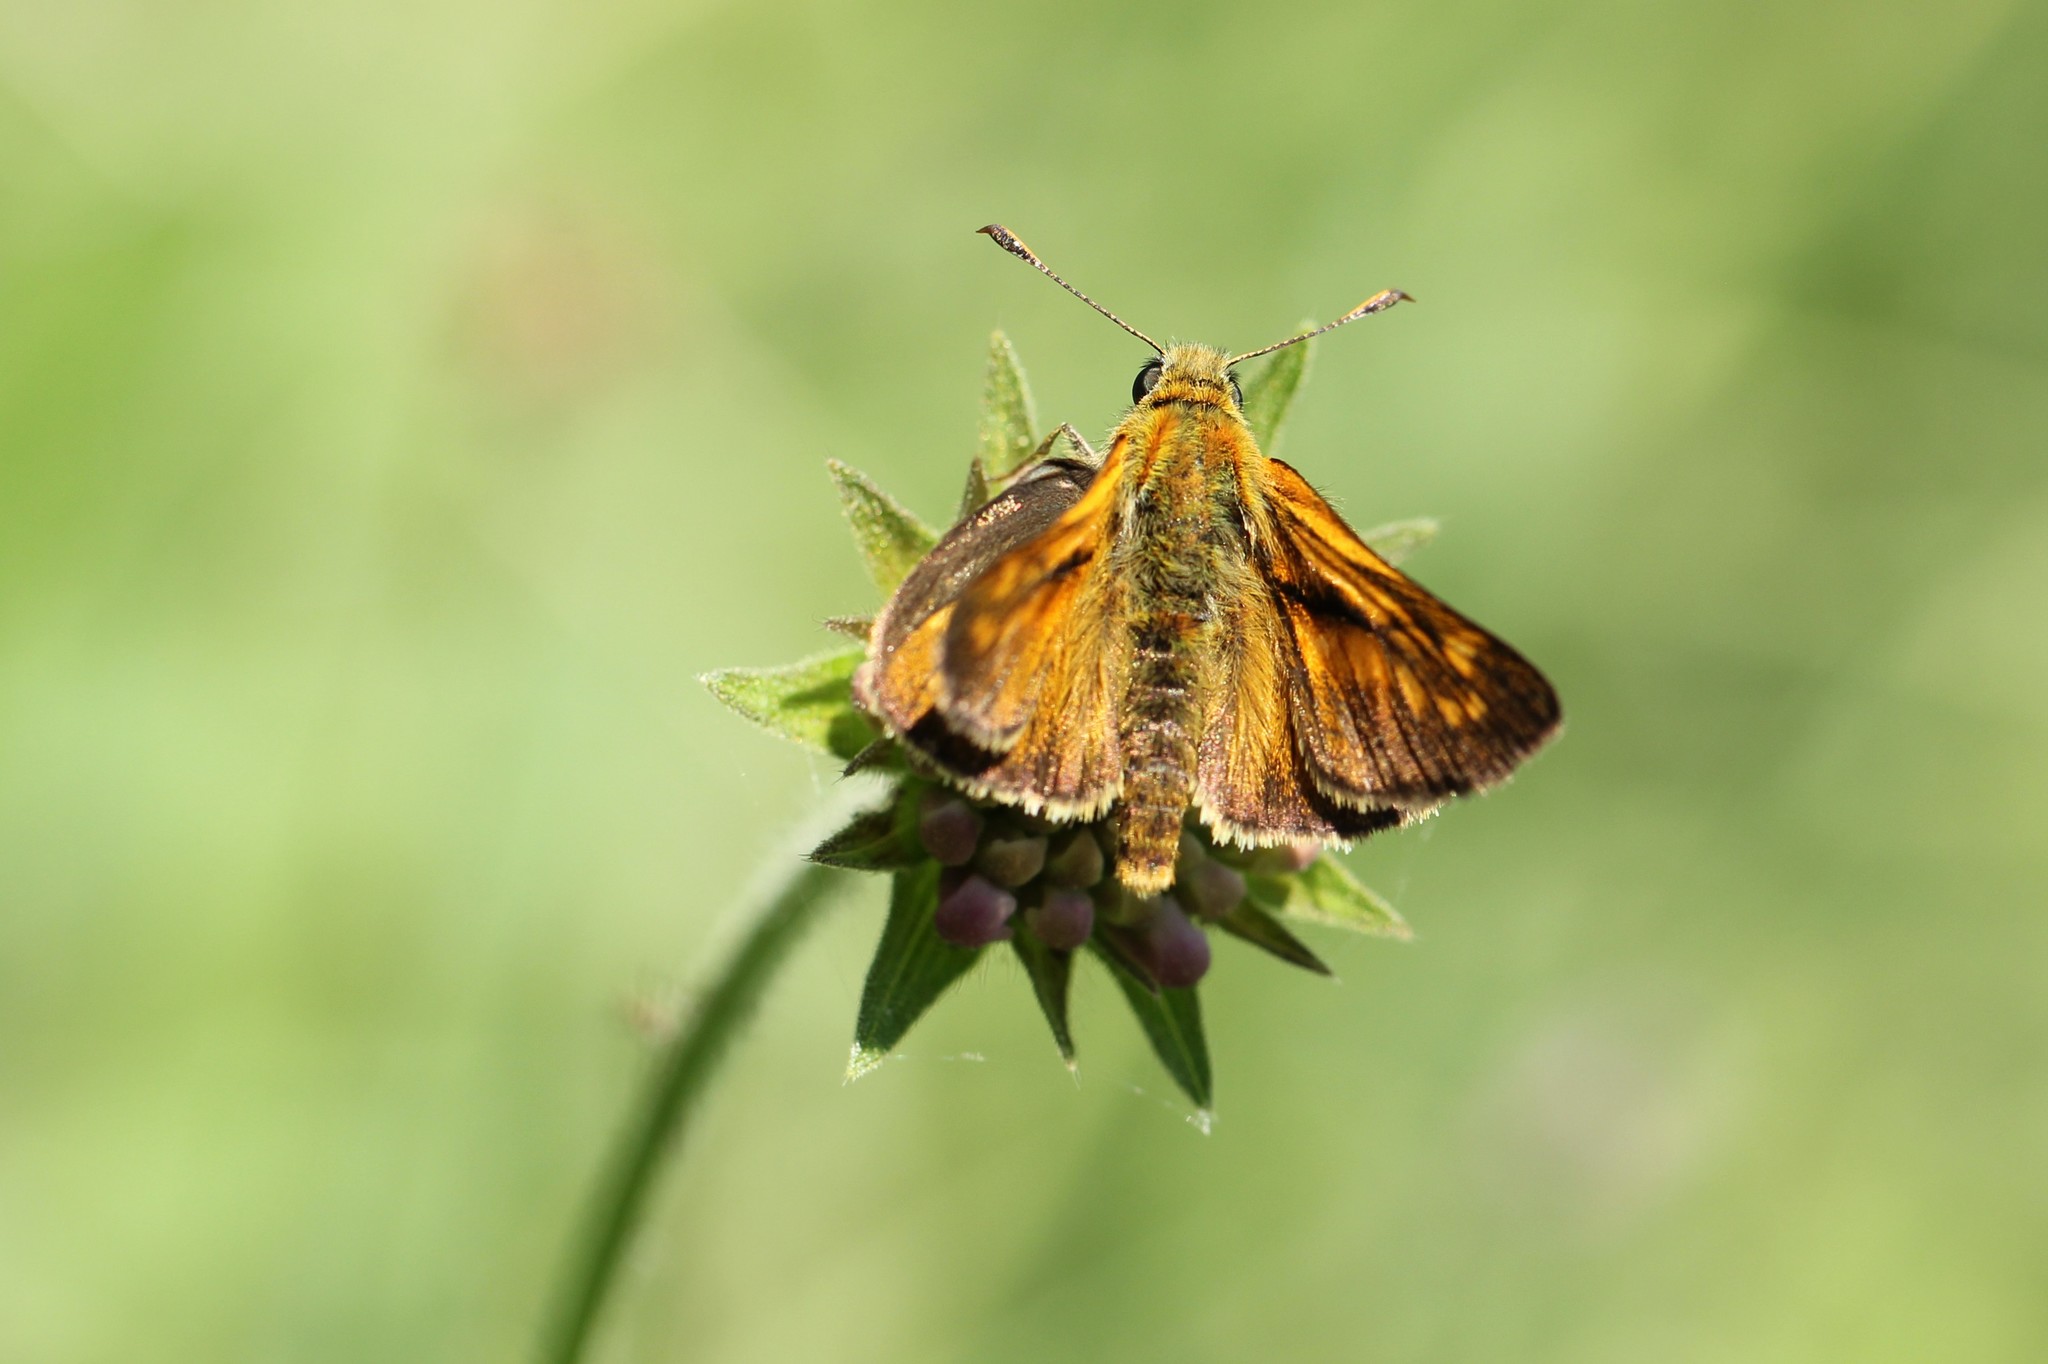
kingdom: Animalia
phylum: Arthropoda
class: Insecta
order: Lepidoptera
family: Hesperiidae
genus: Ochlodes
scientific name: Ochlodes venata
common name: Large skipper
